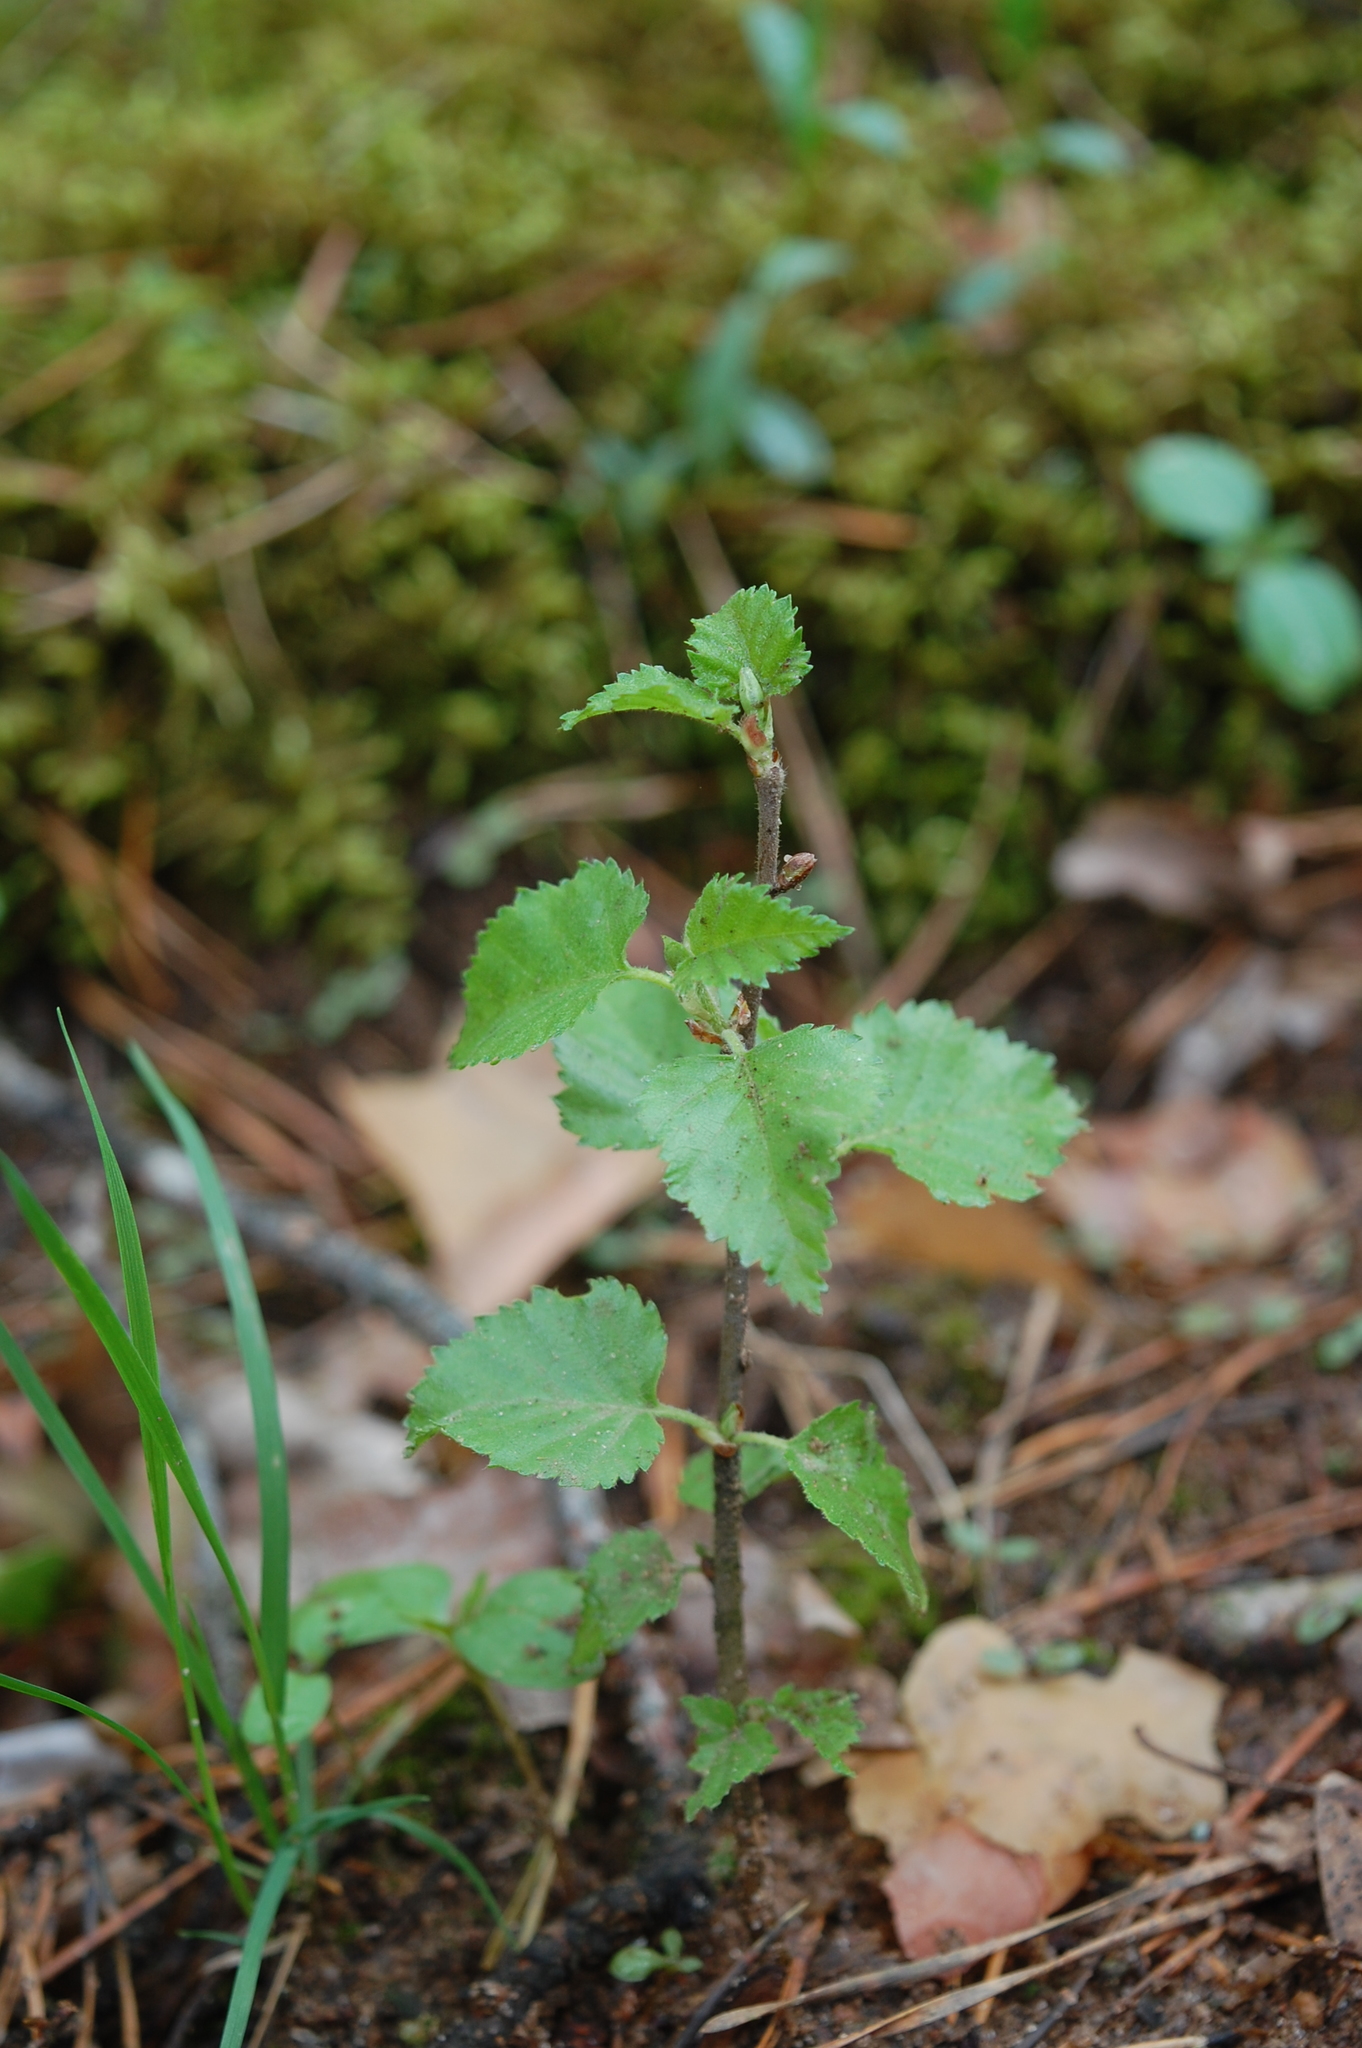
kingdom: Plantae
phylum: Tracheophyta
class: Magnoliopsida
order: Fagales
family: Betulaceae
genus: Betula
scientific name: Betula pubescens
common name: Downy birch
